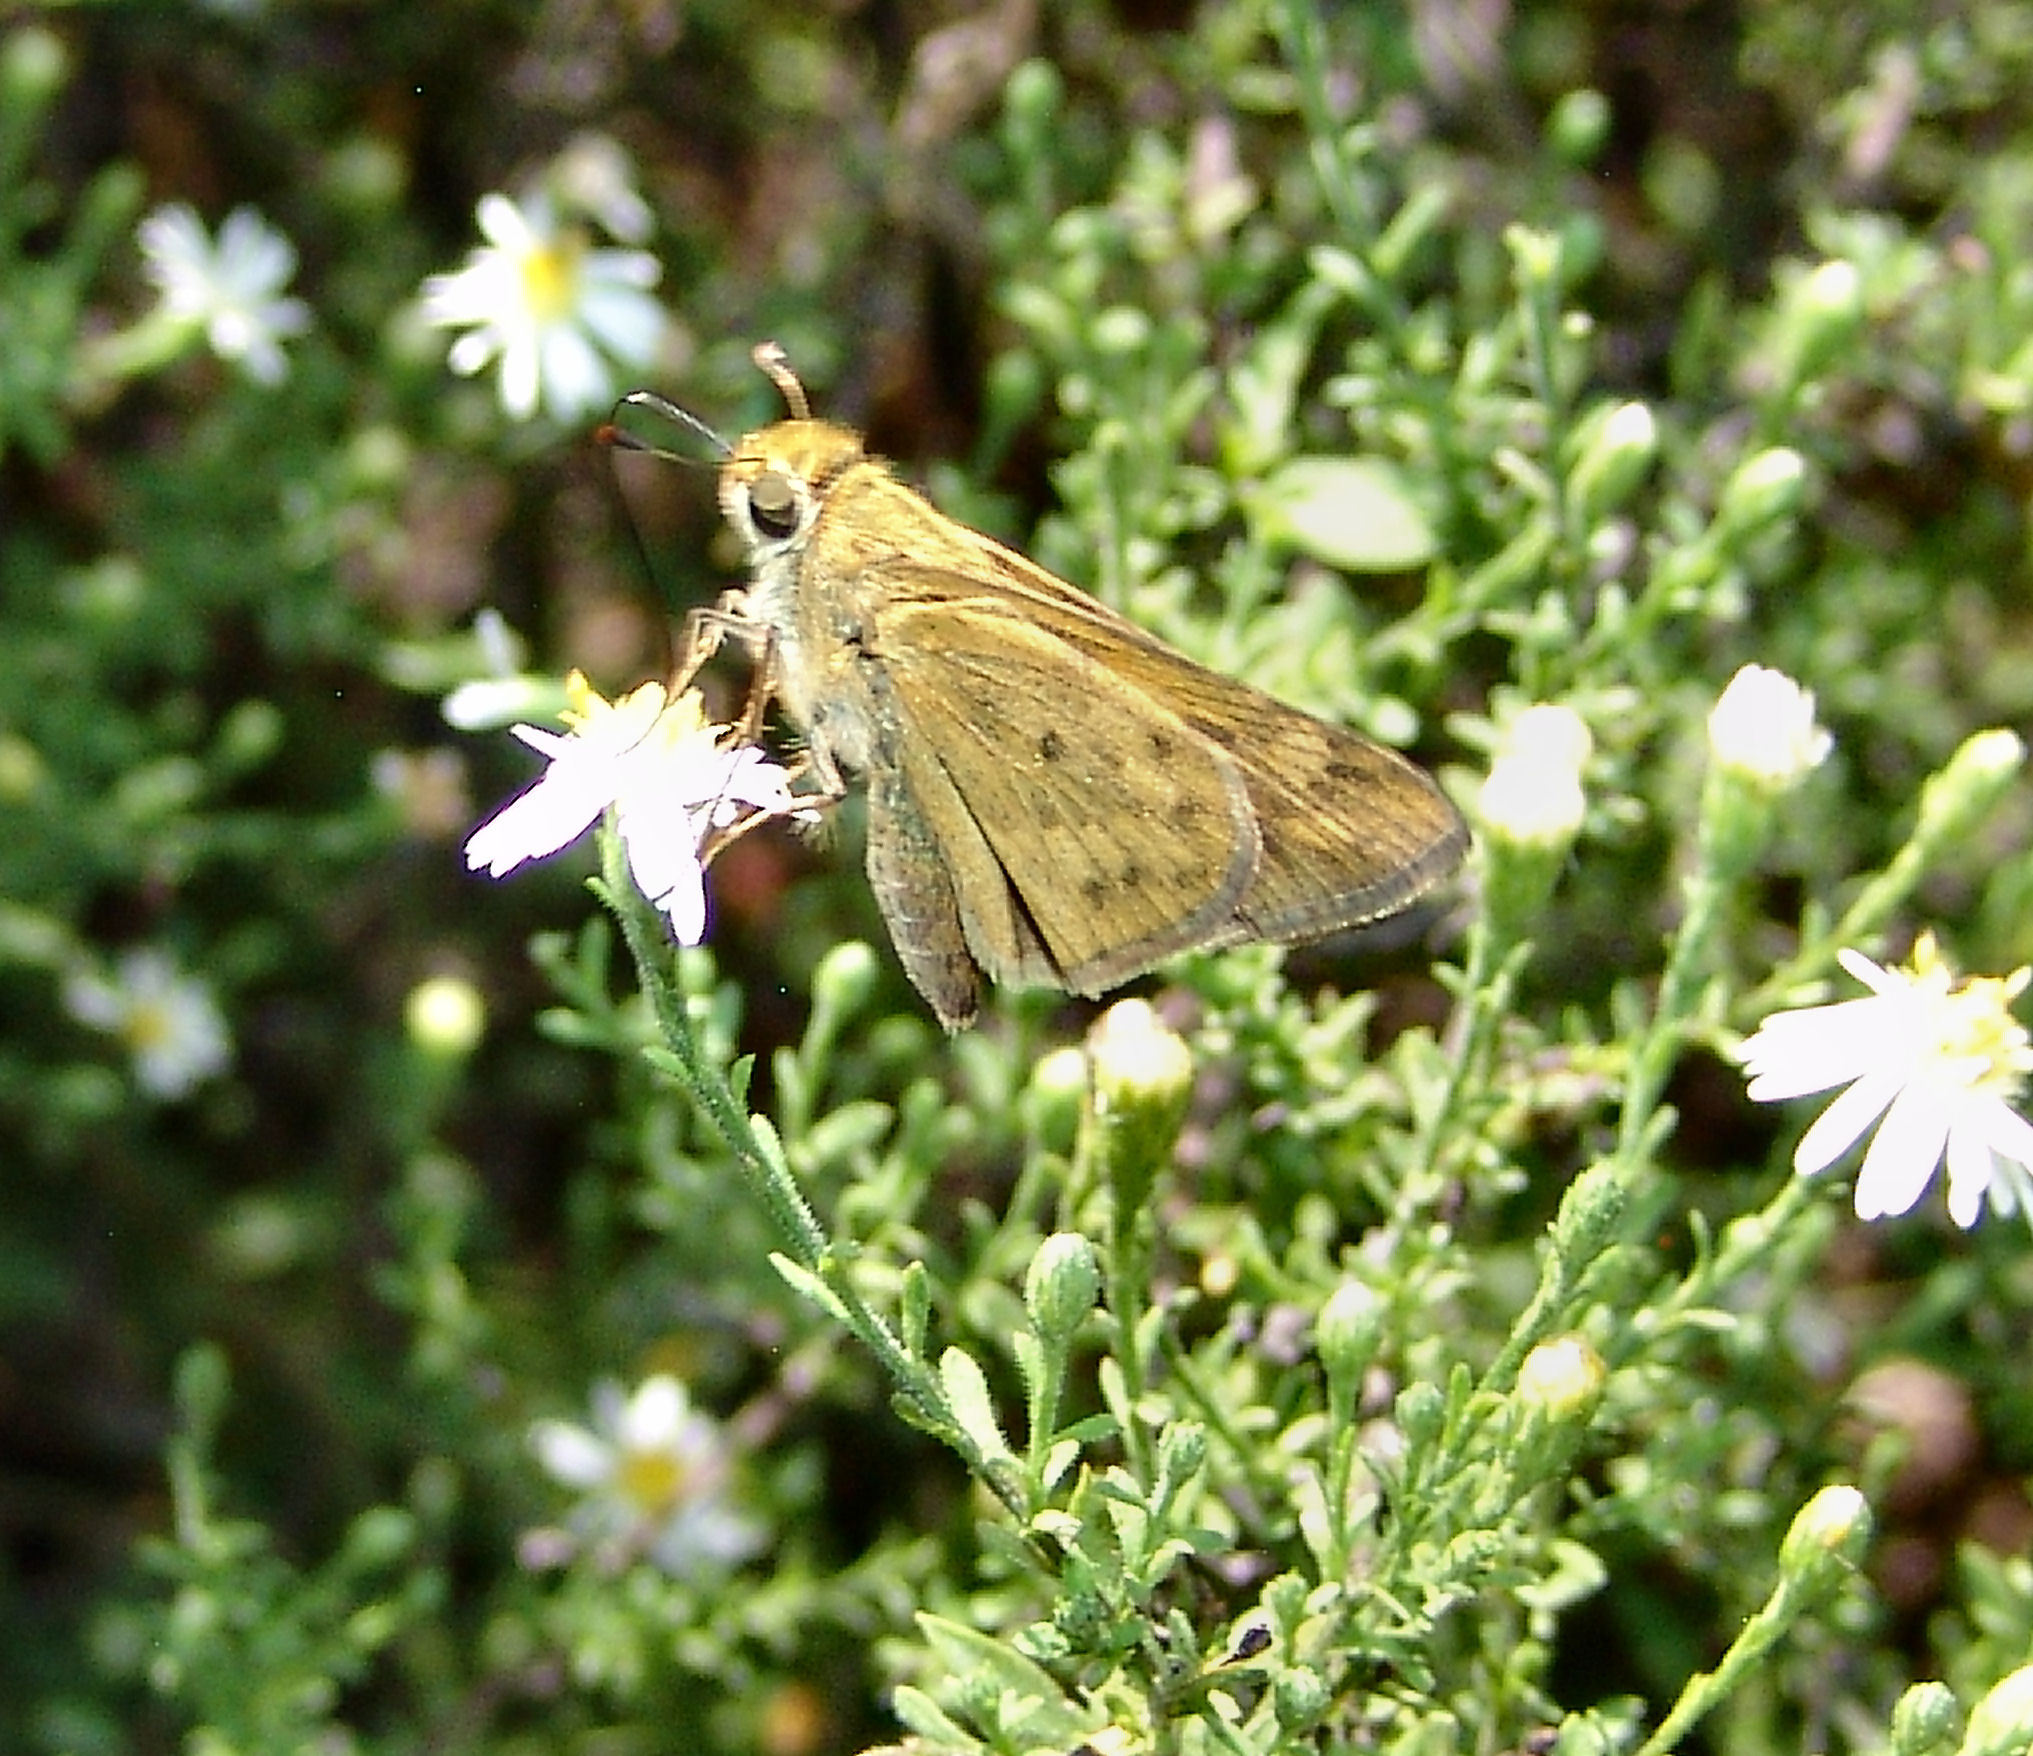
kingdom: Animalia
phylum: Arthropoda
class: Insecta
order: Lepidoptera
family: Hesperiidae
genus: Hylephila
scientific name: Hylephila phyleus
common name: Fiery skipper
